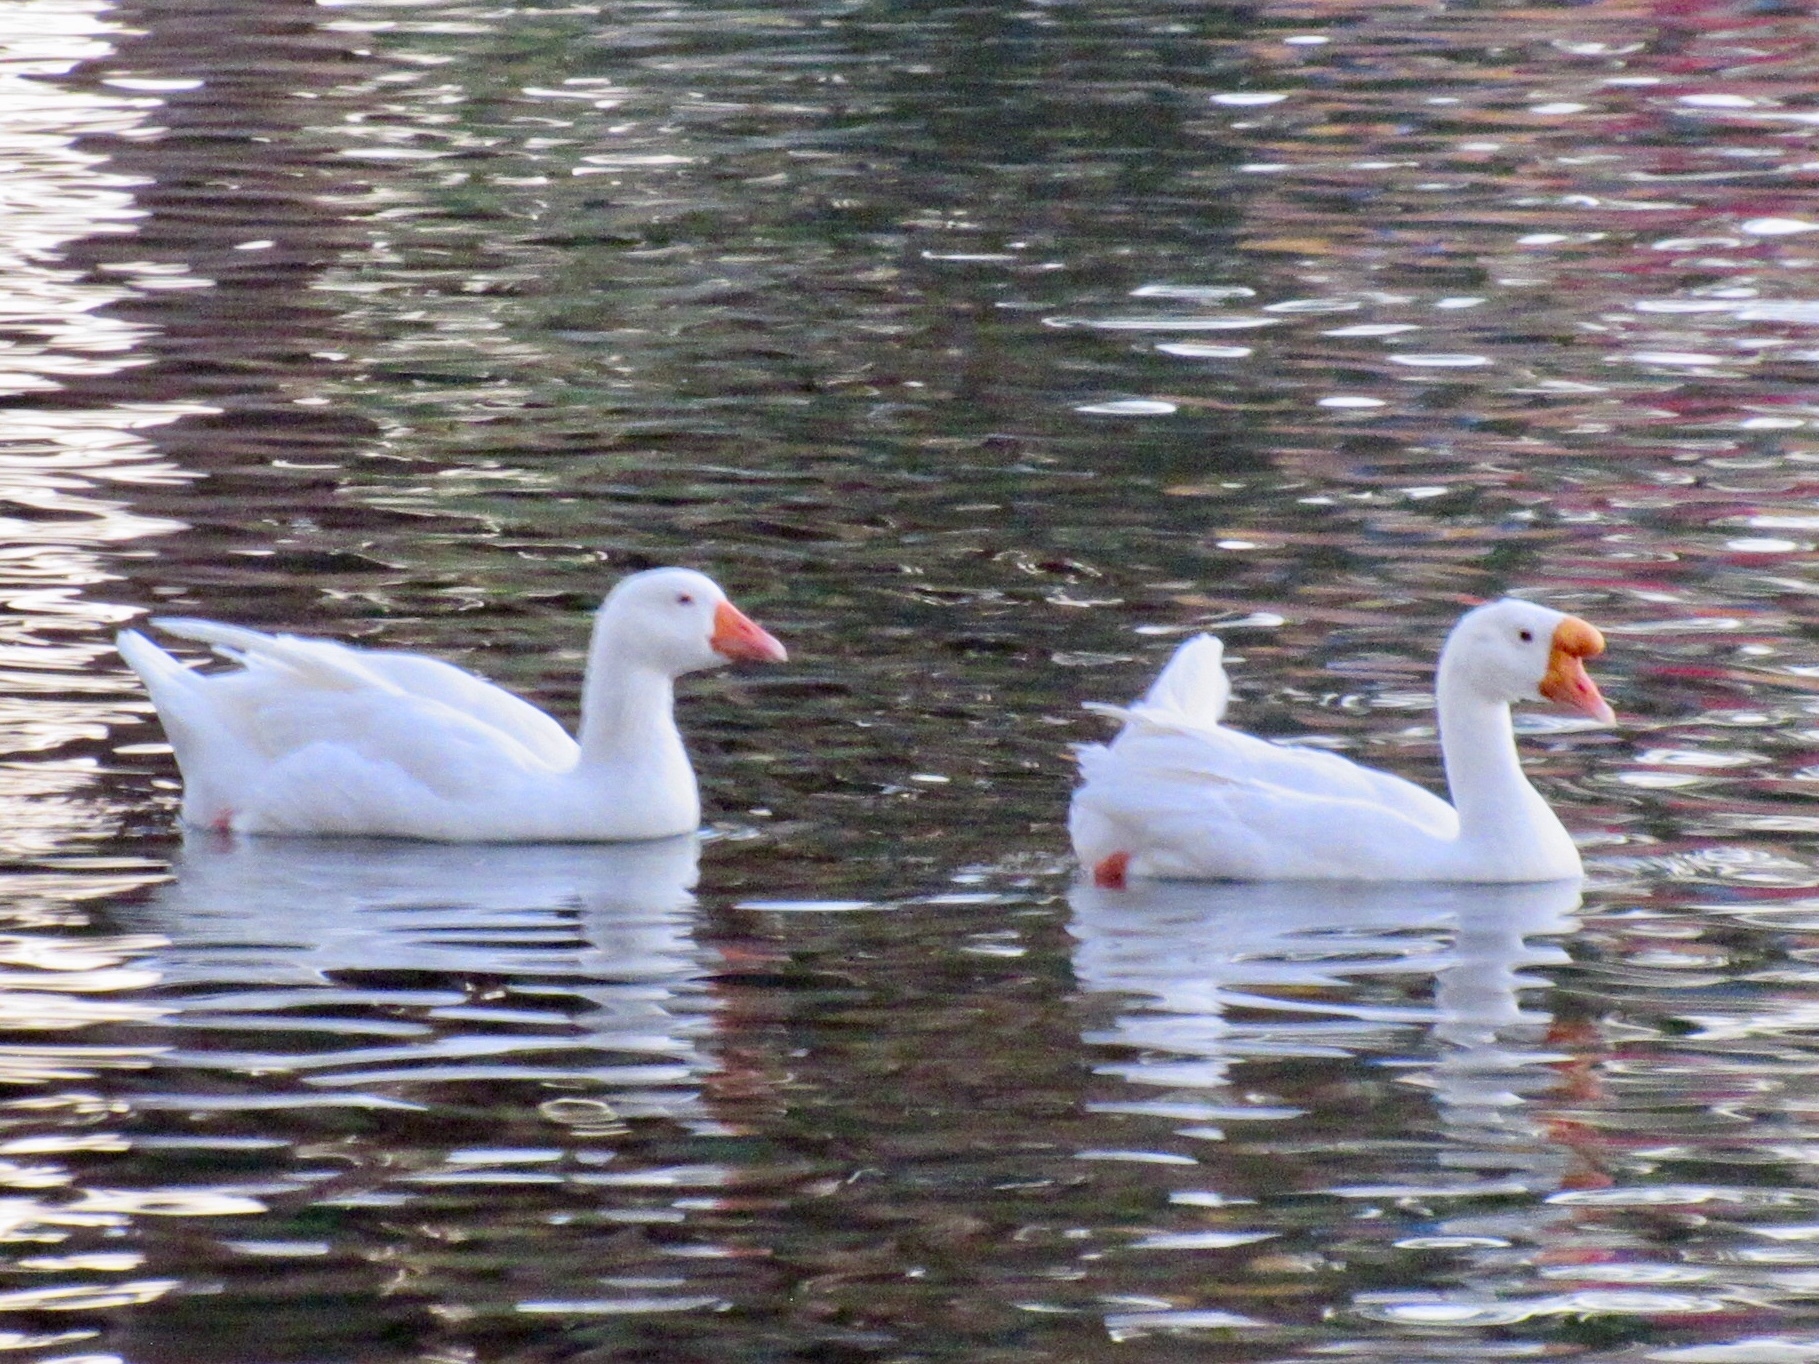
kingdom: Animalia
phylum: Chordata
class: Aves
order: Anseriformes
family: Anatidae
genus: Anser
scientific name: Anser anser
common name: Greylag goose
